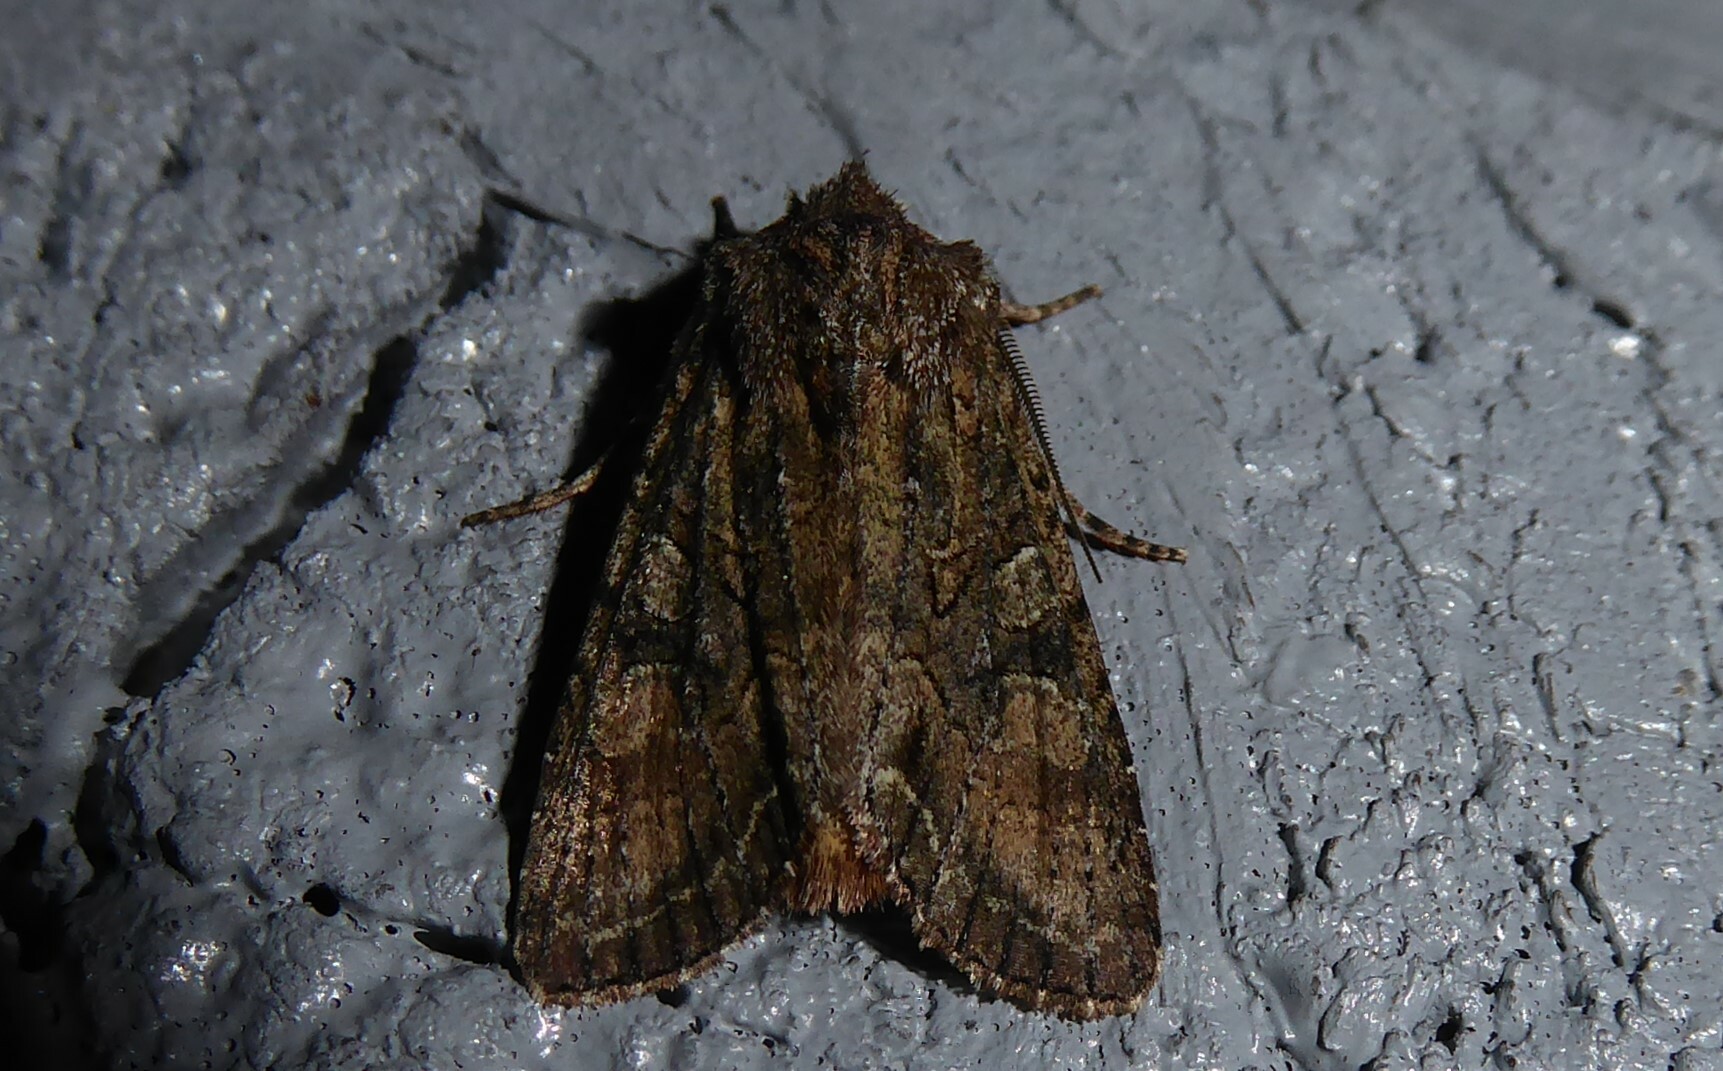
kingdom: Animalia
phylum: Arthropoda
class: Insecta
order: Lepidoptera
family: Noctuidae
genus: Ichneutica
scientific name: Ichneutica mutans
